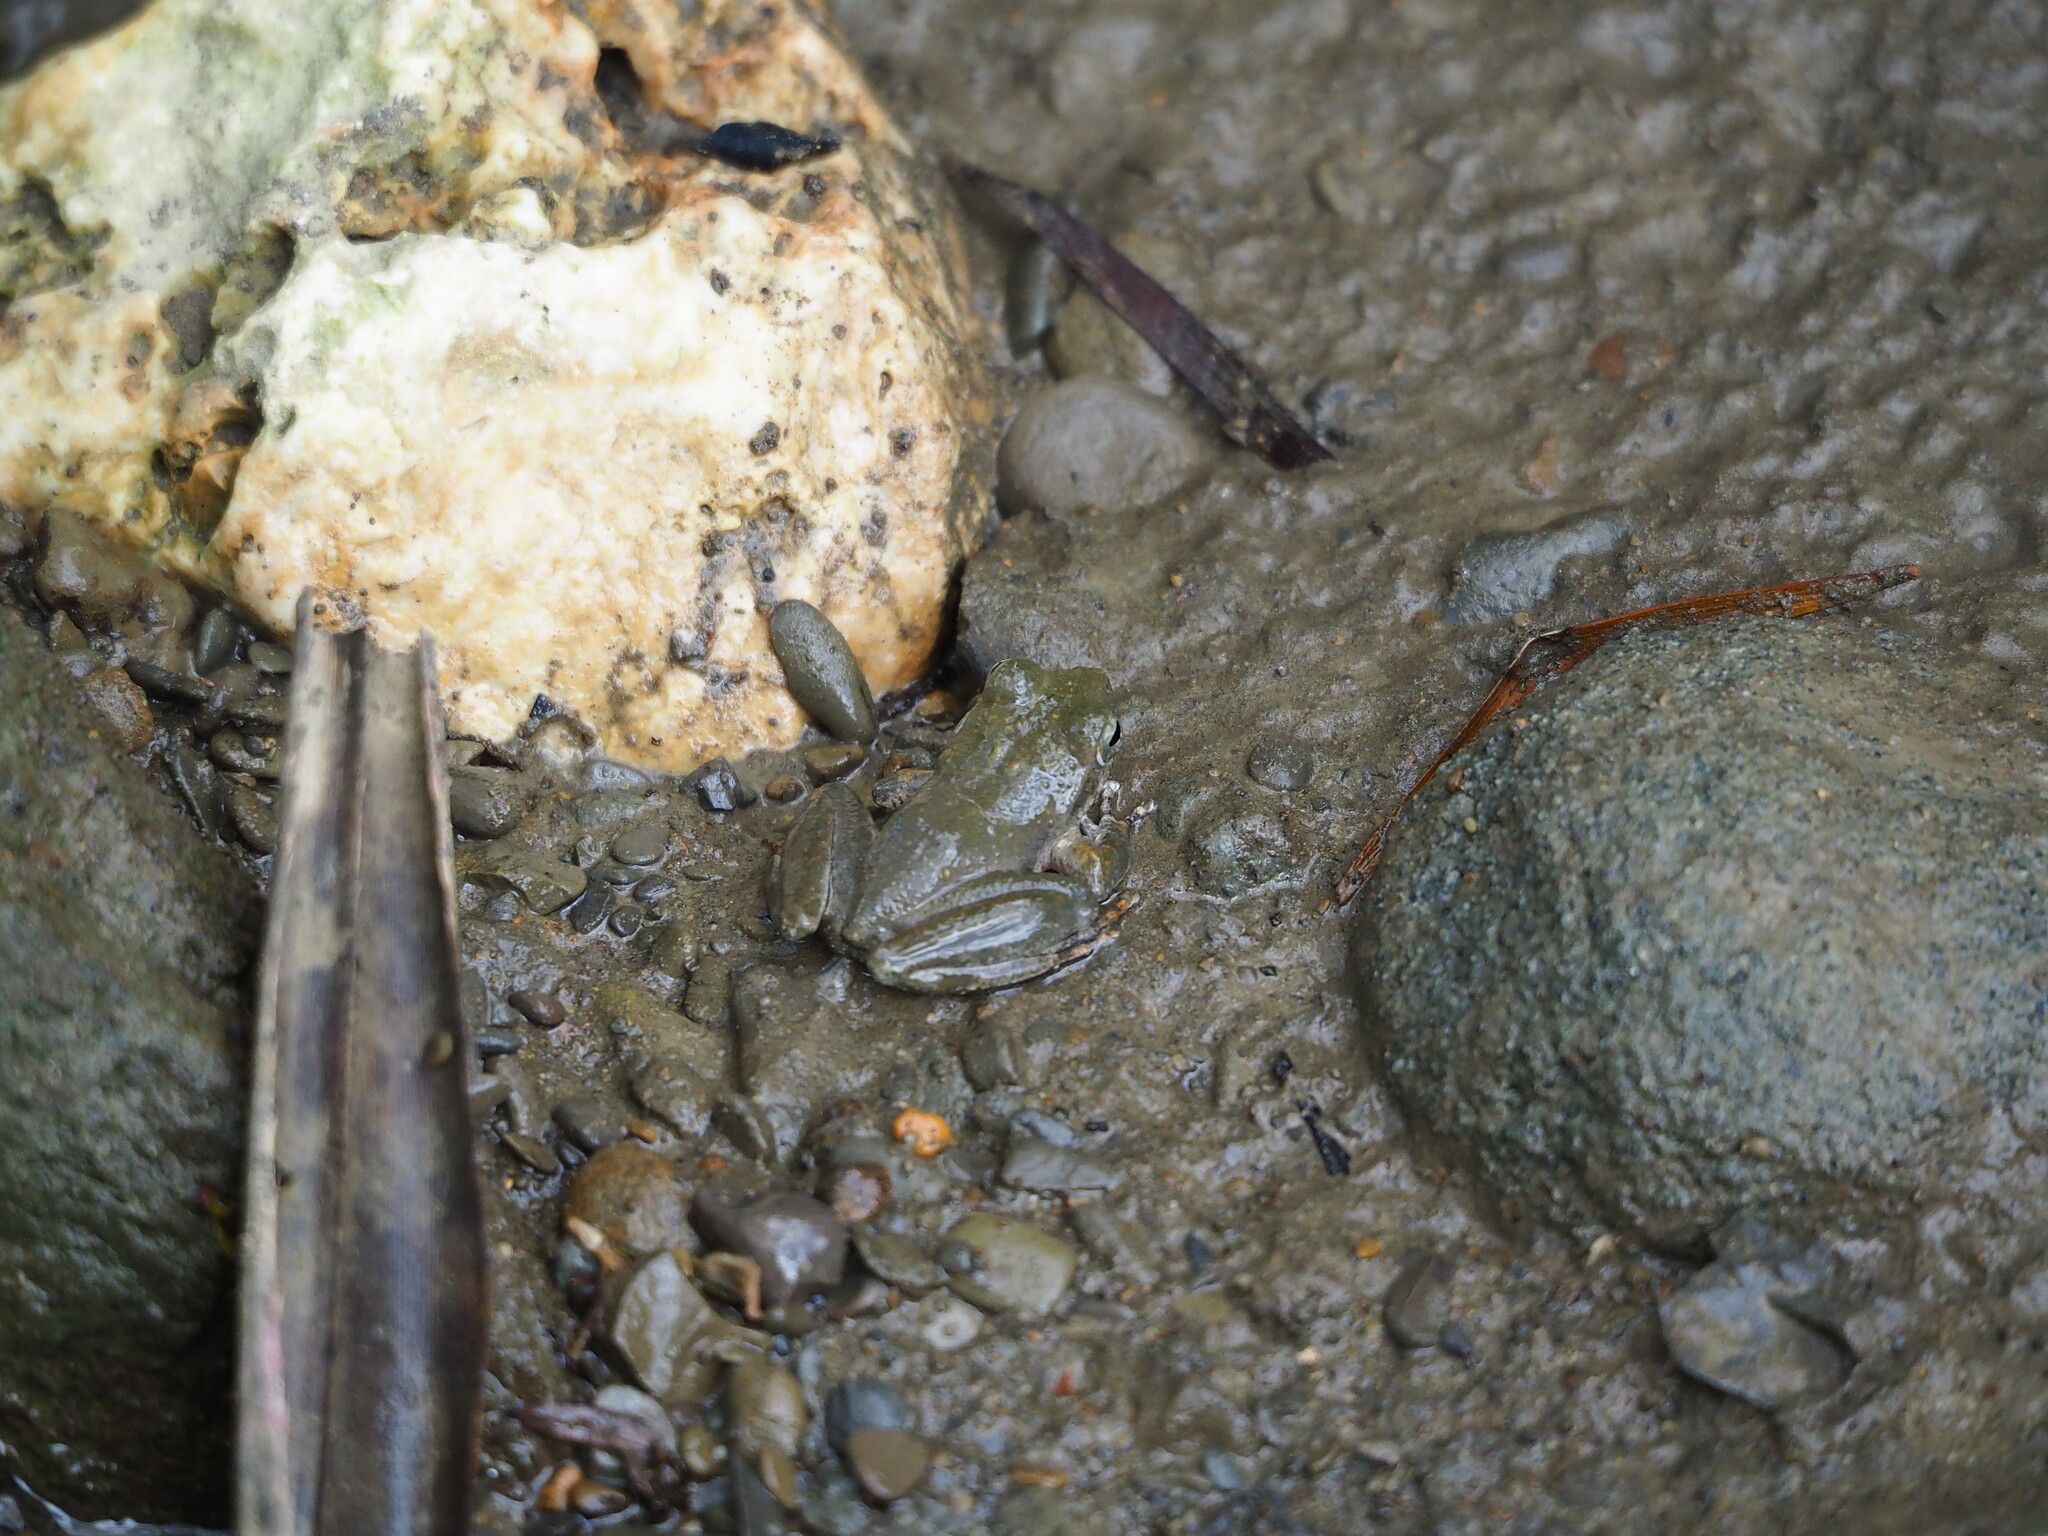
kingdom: Animalia
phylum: Chordata
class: Amphibia
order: Anura
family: Rhacophoridae
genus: Buergeria
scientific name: Buergeria otai
